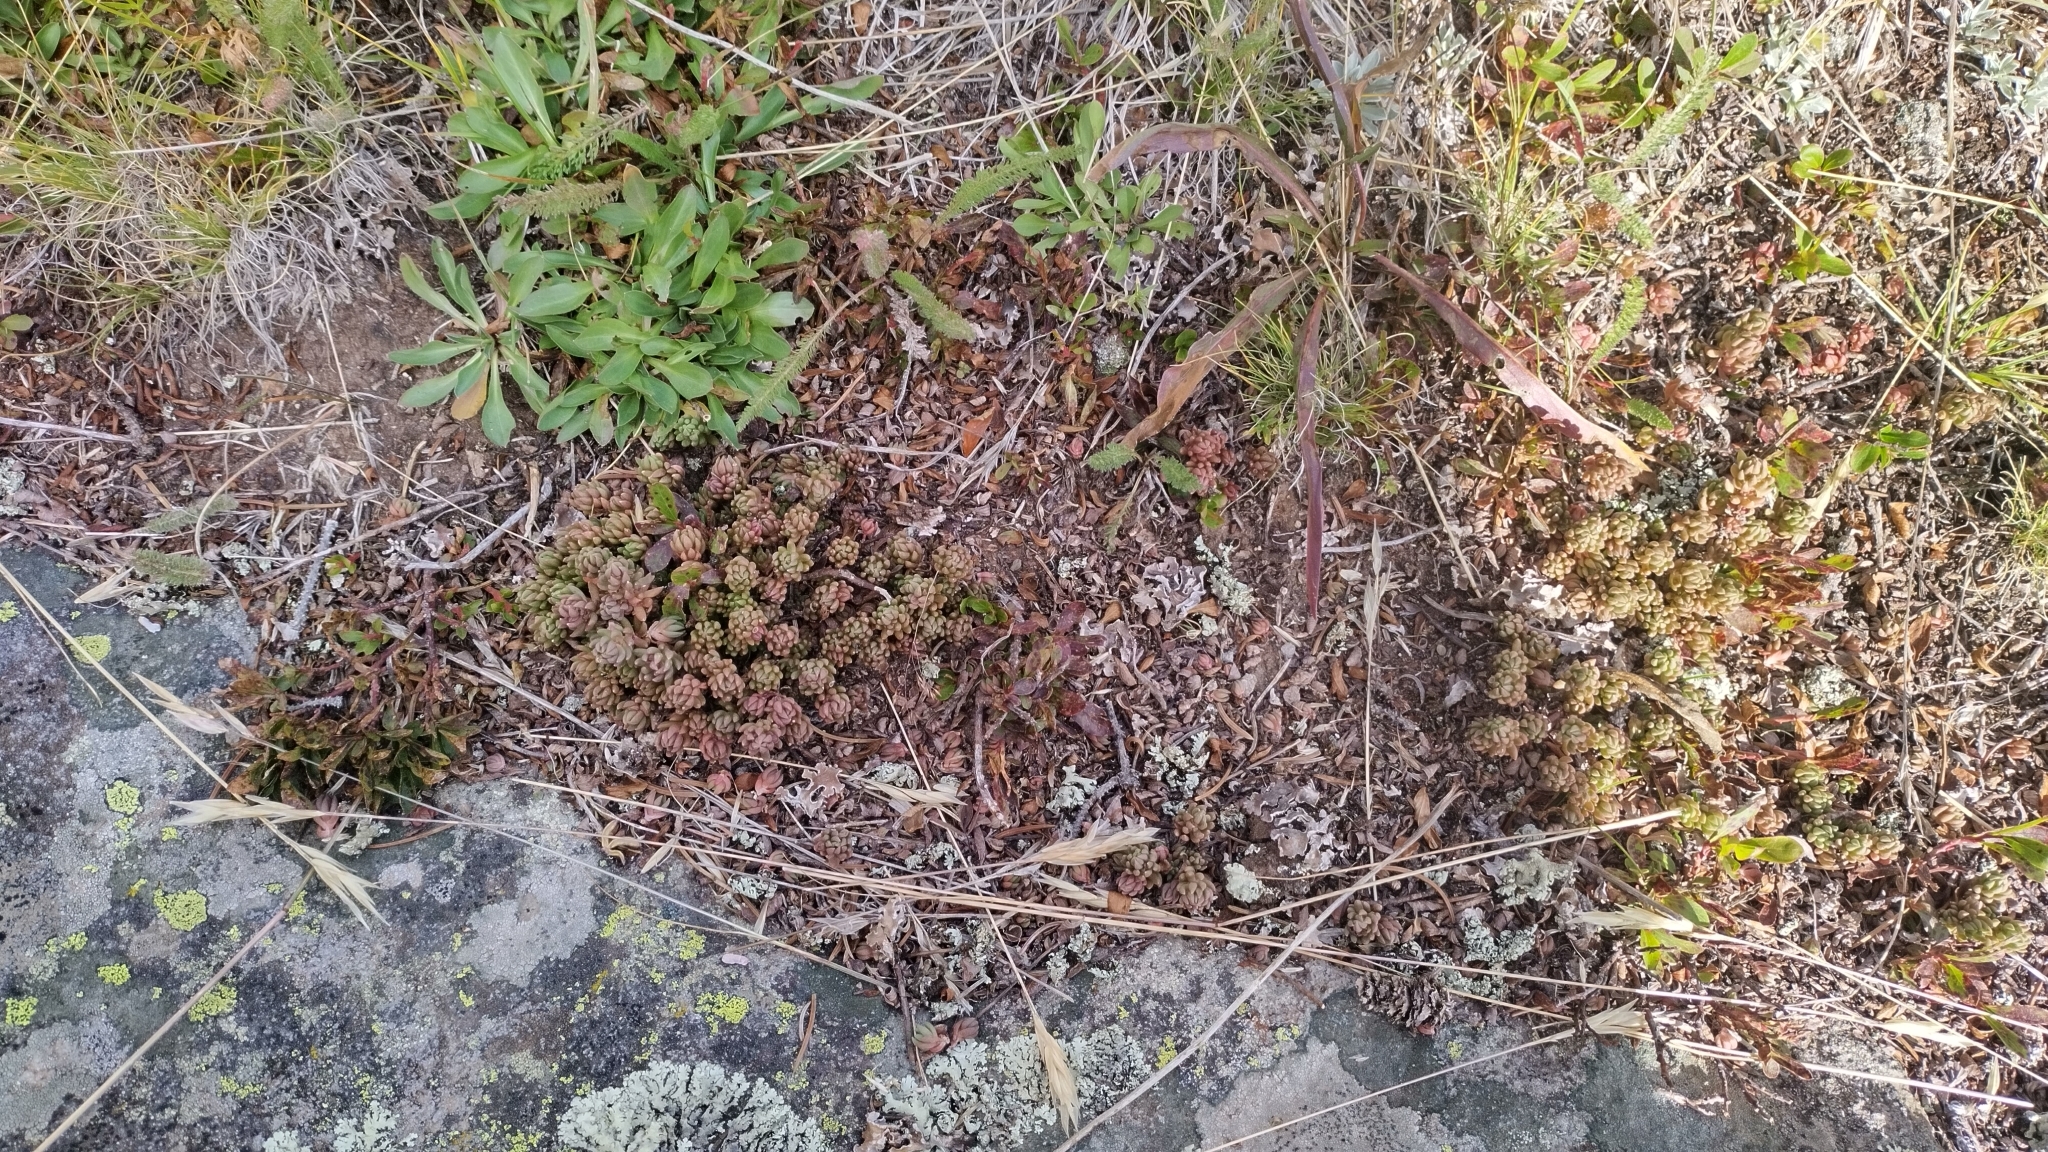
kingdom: Plantae
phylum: Tracheophyta
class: Magnoliopsida
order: Saxifragales
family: Crassulaceae
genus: Sedum
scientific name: Sedum lanceolatum
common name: Common stonecrop
